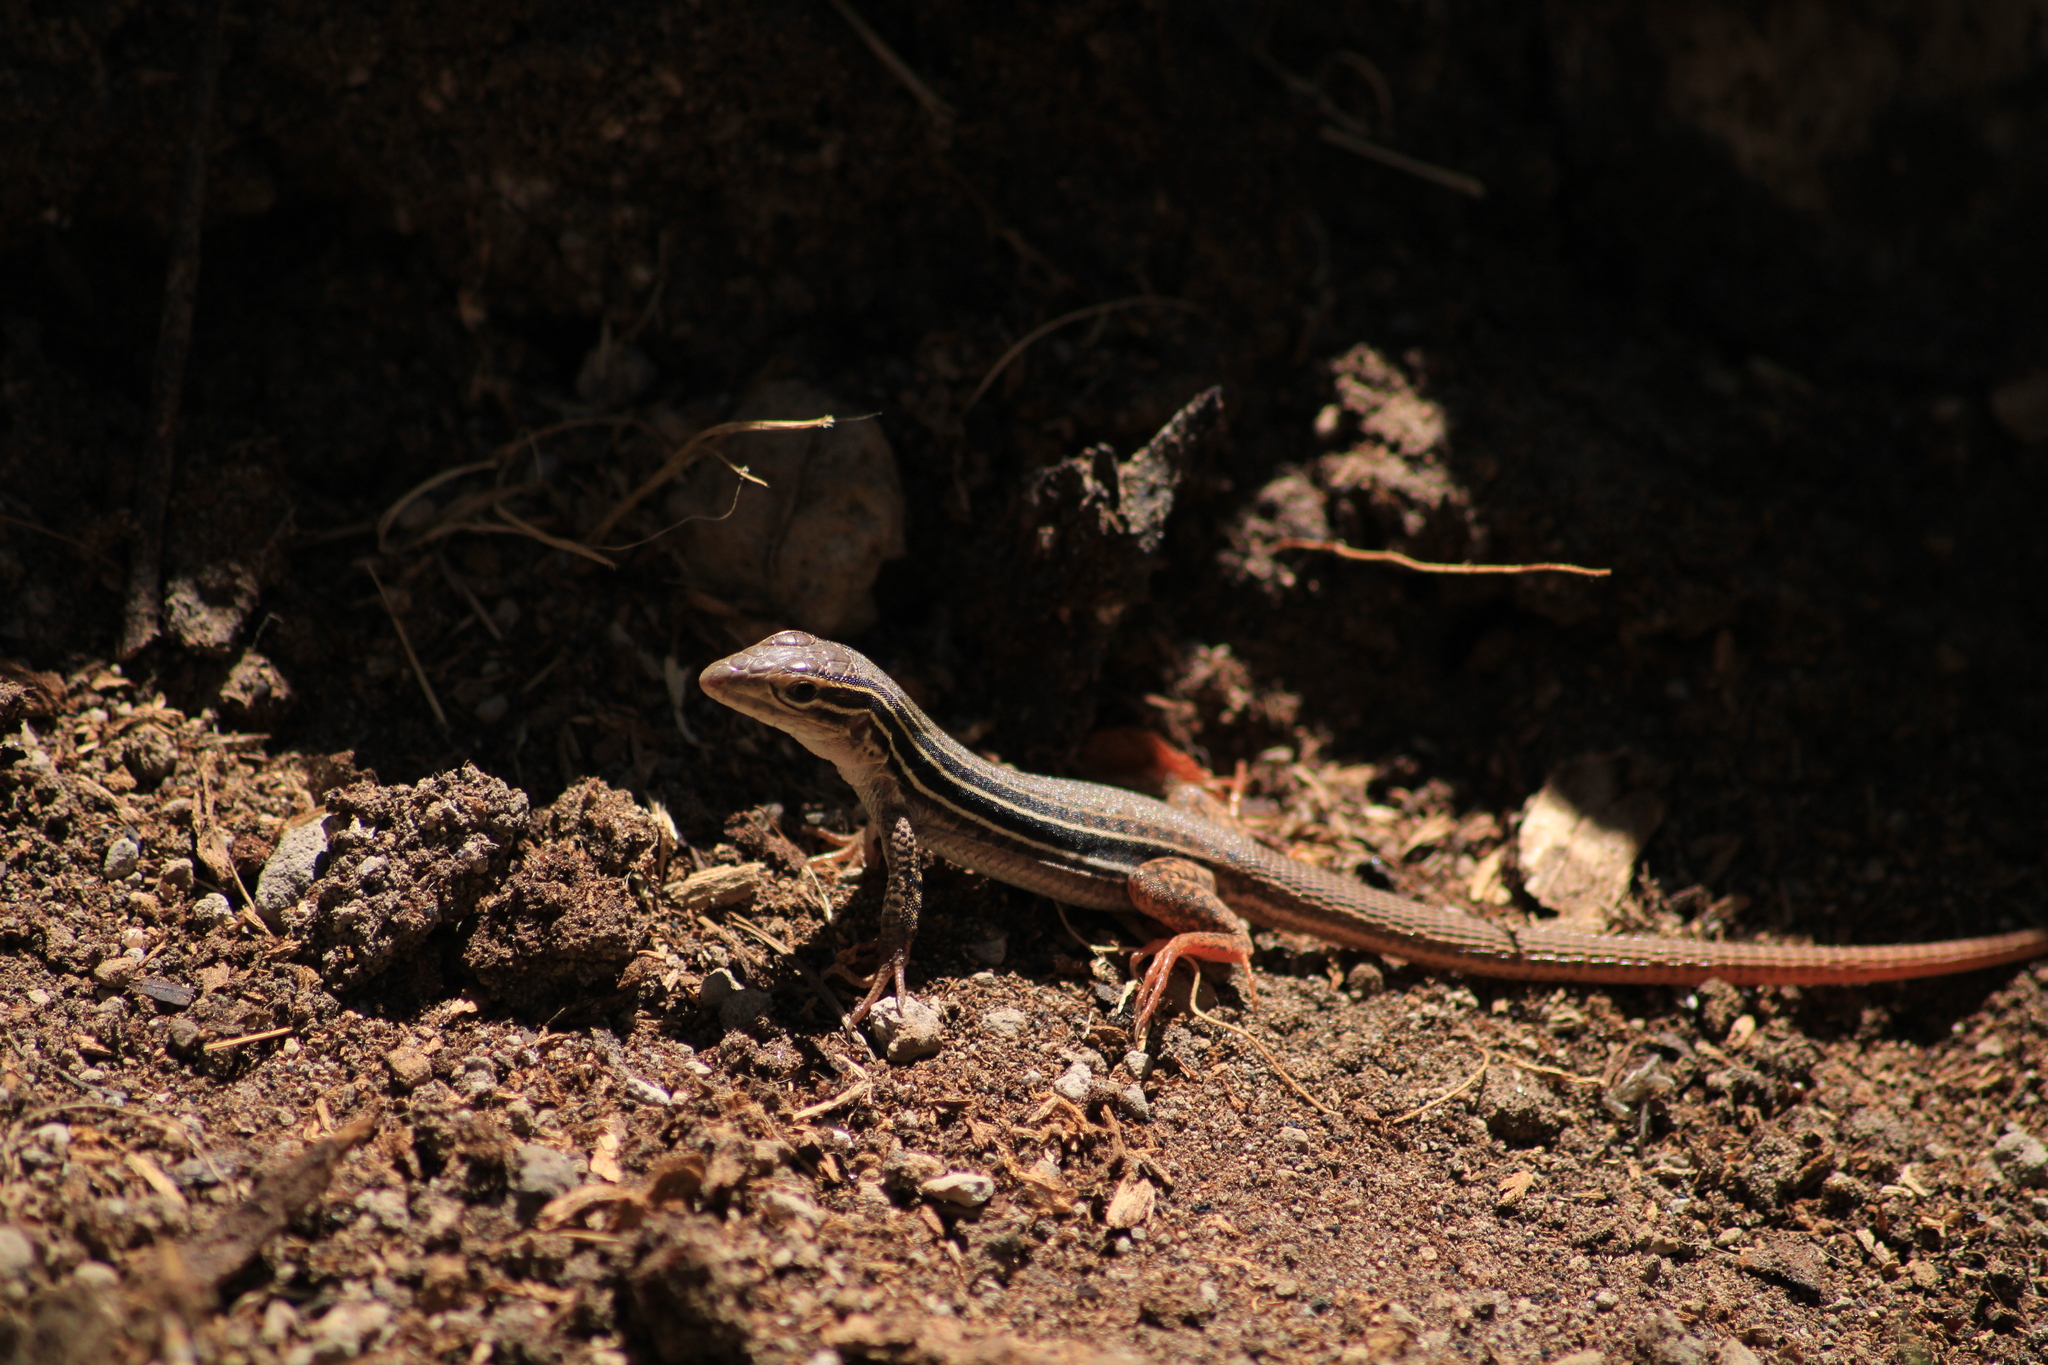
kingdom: Animalia
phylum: Chordata
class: Squamata
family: Teiidae
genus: Aspidoscelis
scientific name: Aspidoscelis costatus
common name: Western mexico whiptail
